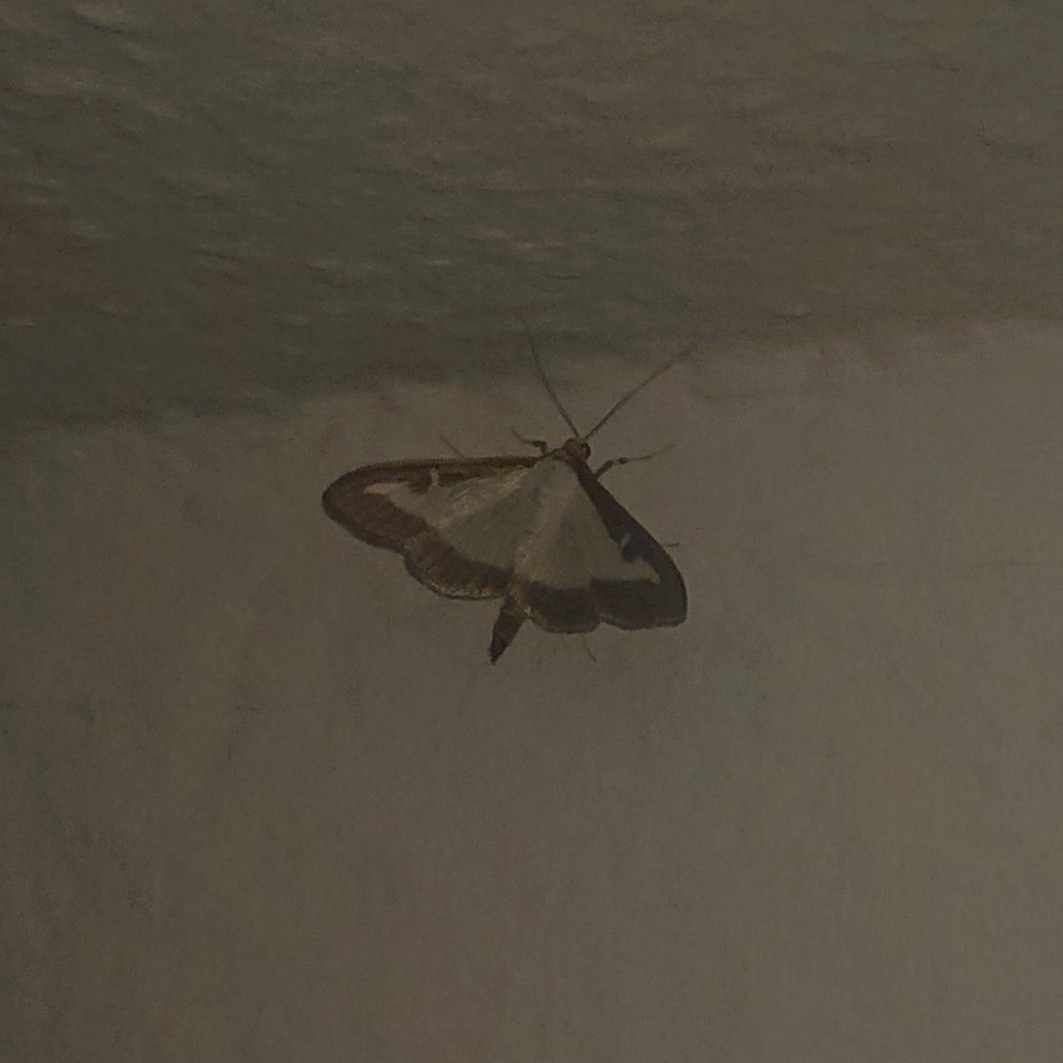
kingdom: Animalia
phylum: Arthropoda
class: Insecta
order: Lepidoptera
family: Crambidae
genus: Cydalima
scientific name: Cydalima perspectalis
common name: Box tree moth
